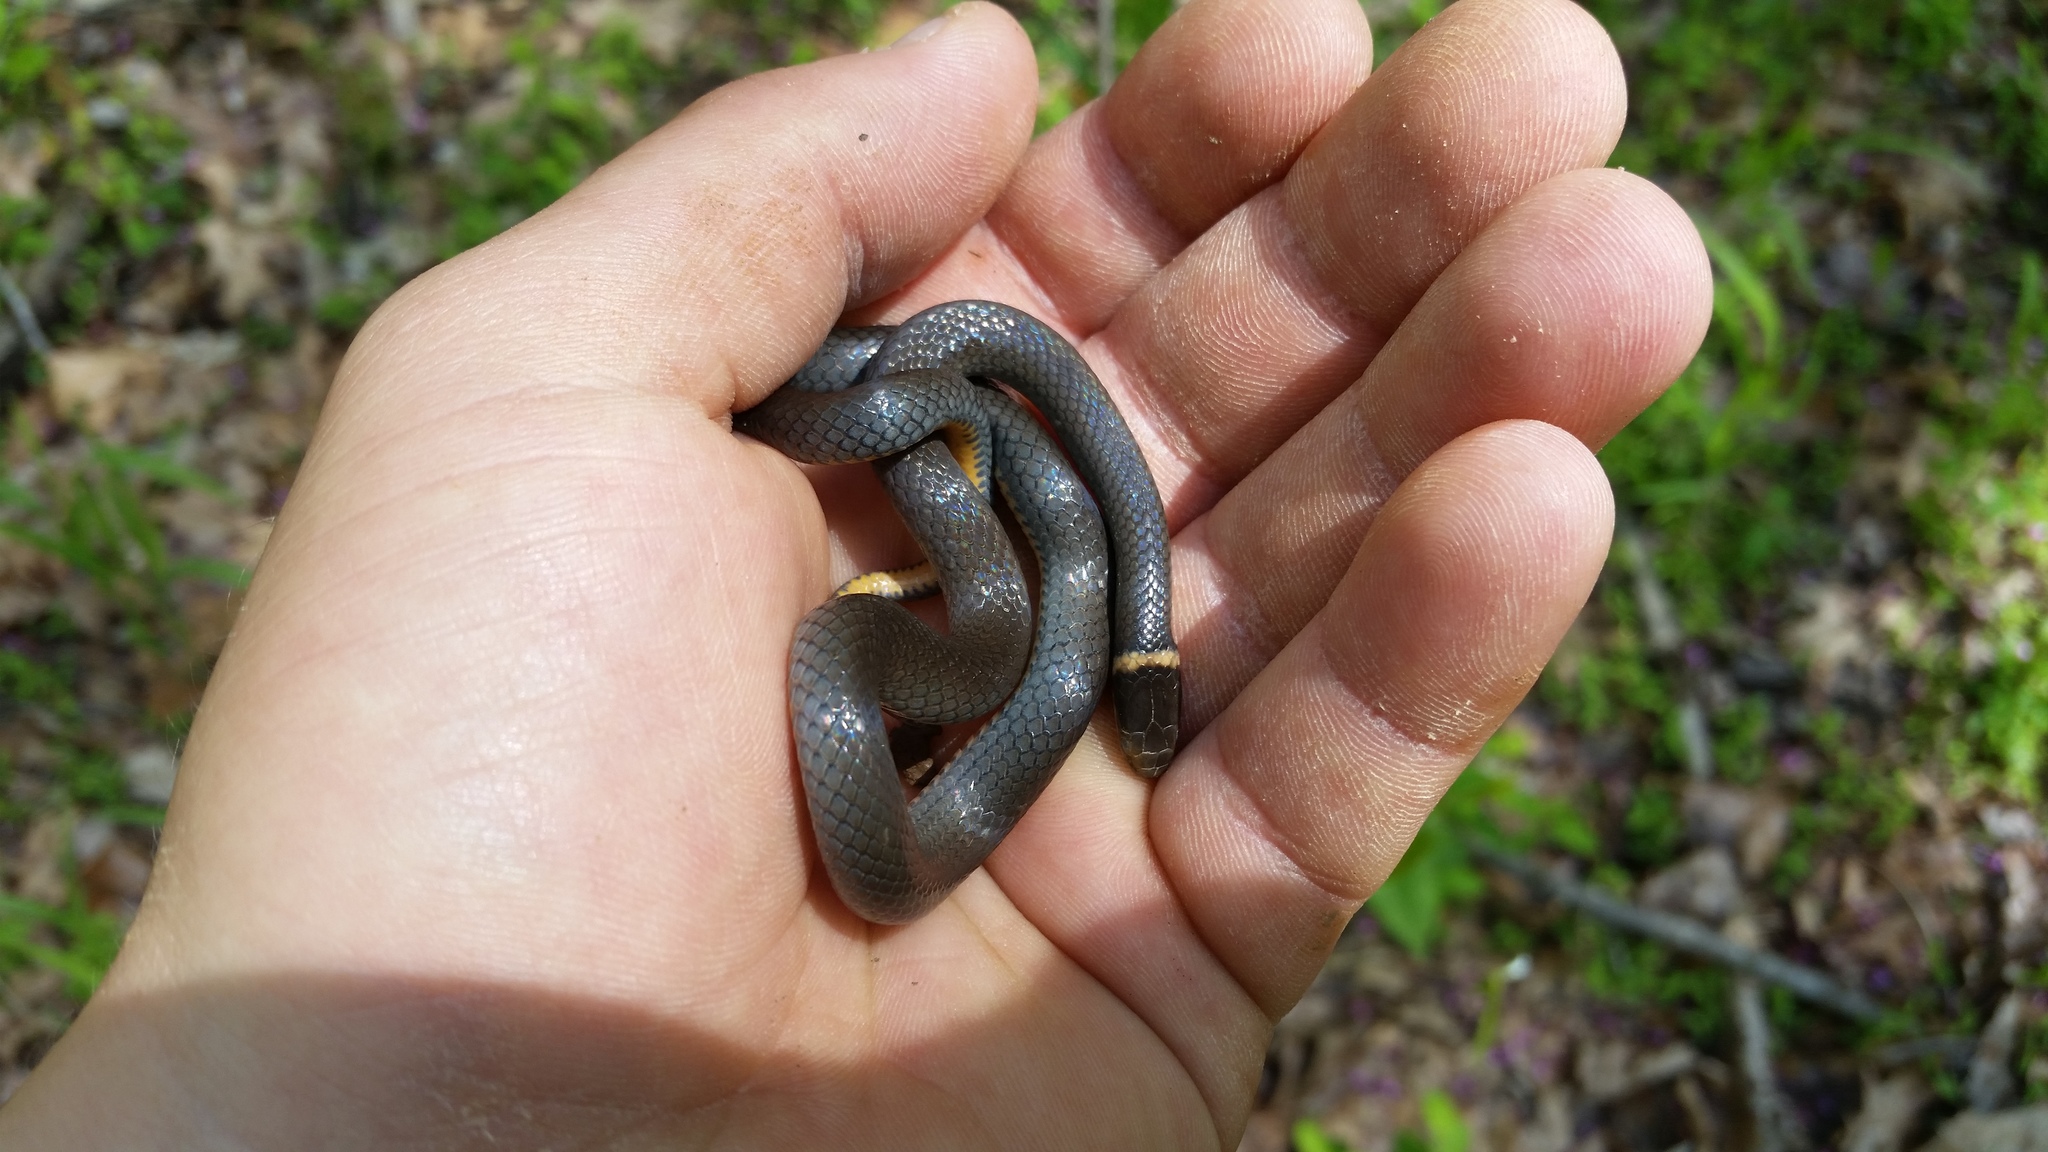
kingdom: Animalia
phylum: Chordata
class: Squamata
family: Colubridae
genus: Diadophis
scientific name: Diadophis punctatus
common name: Ringneck snake
